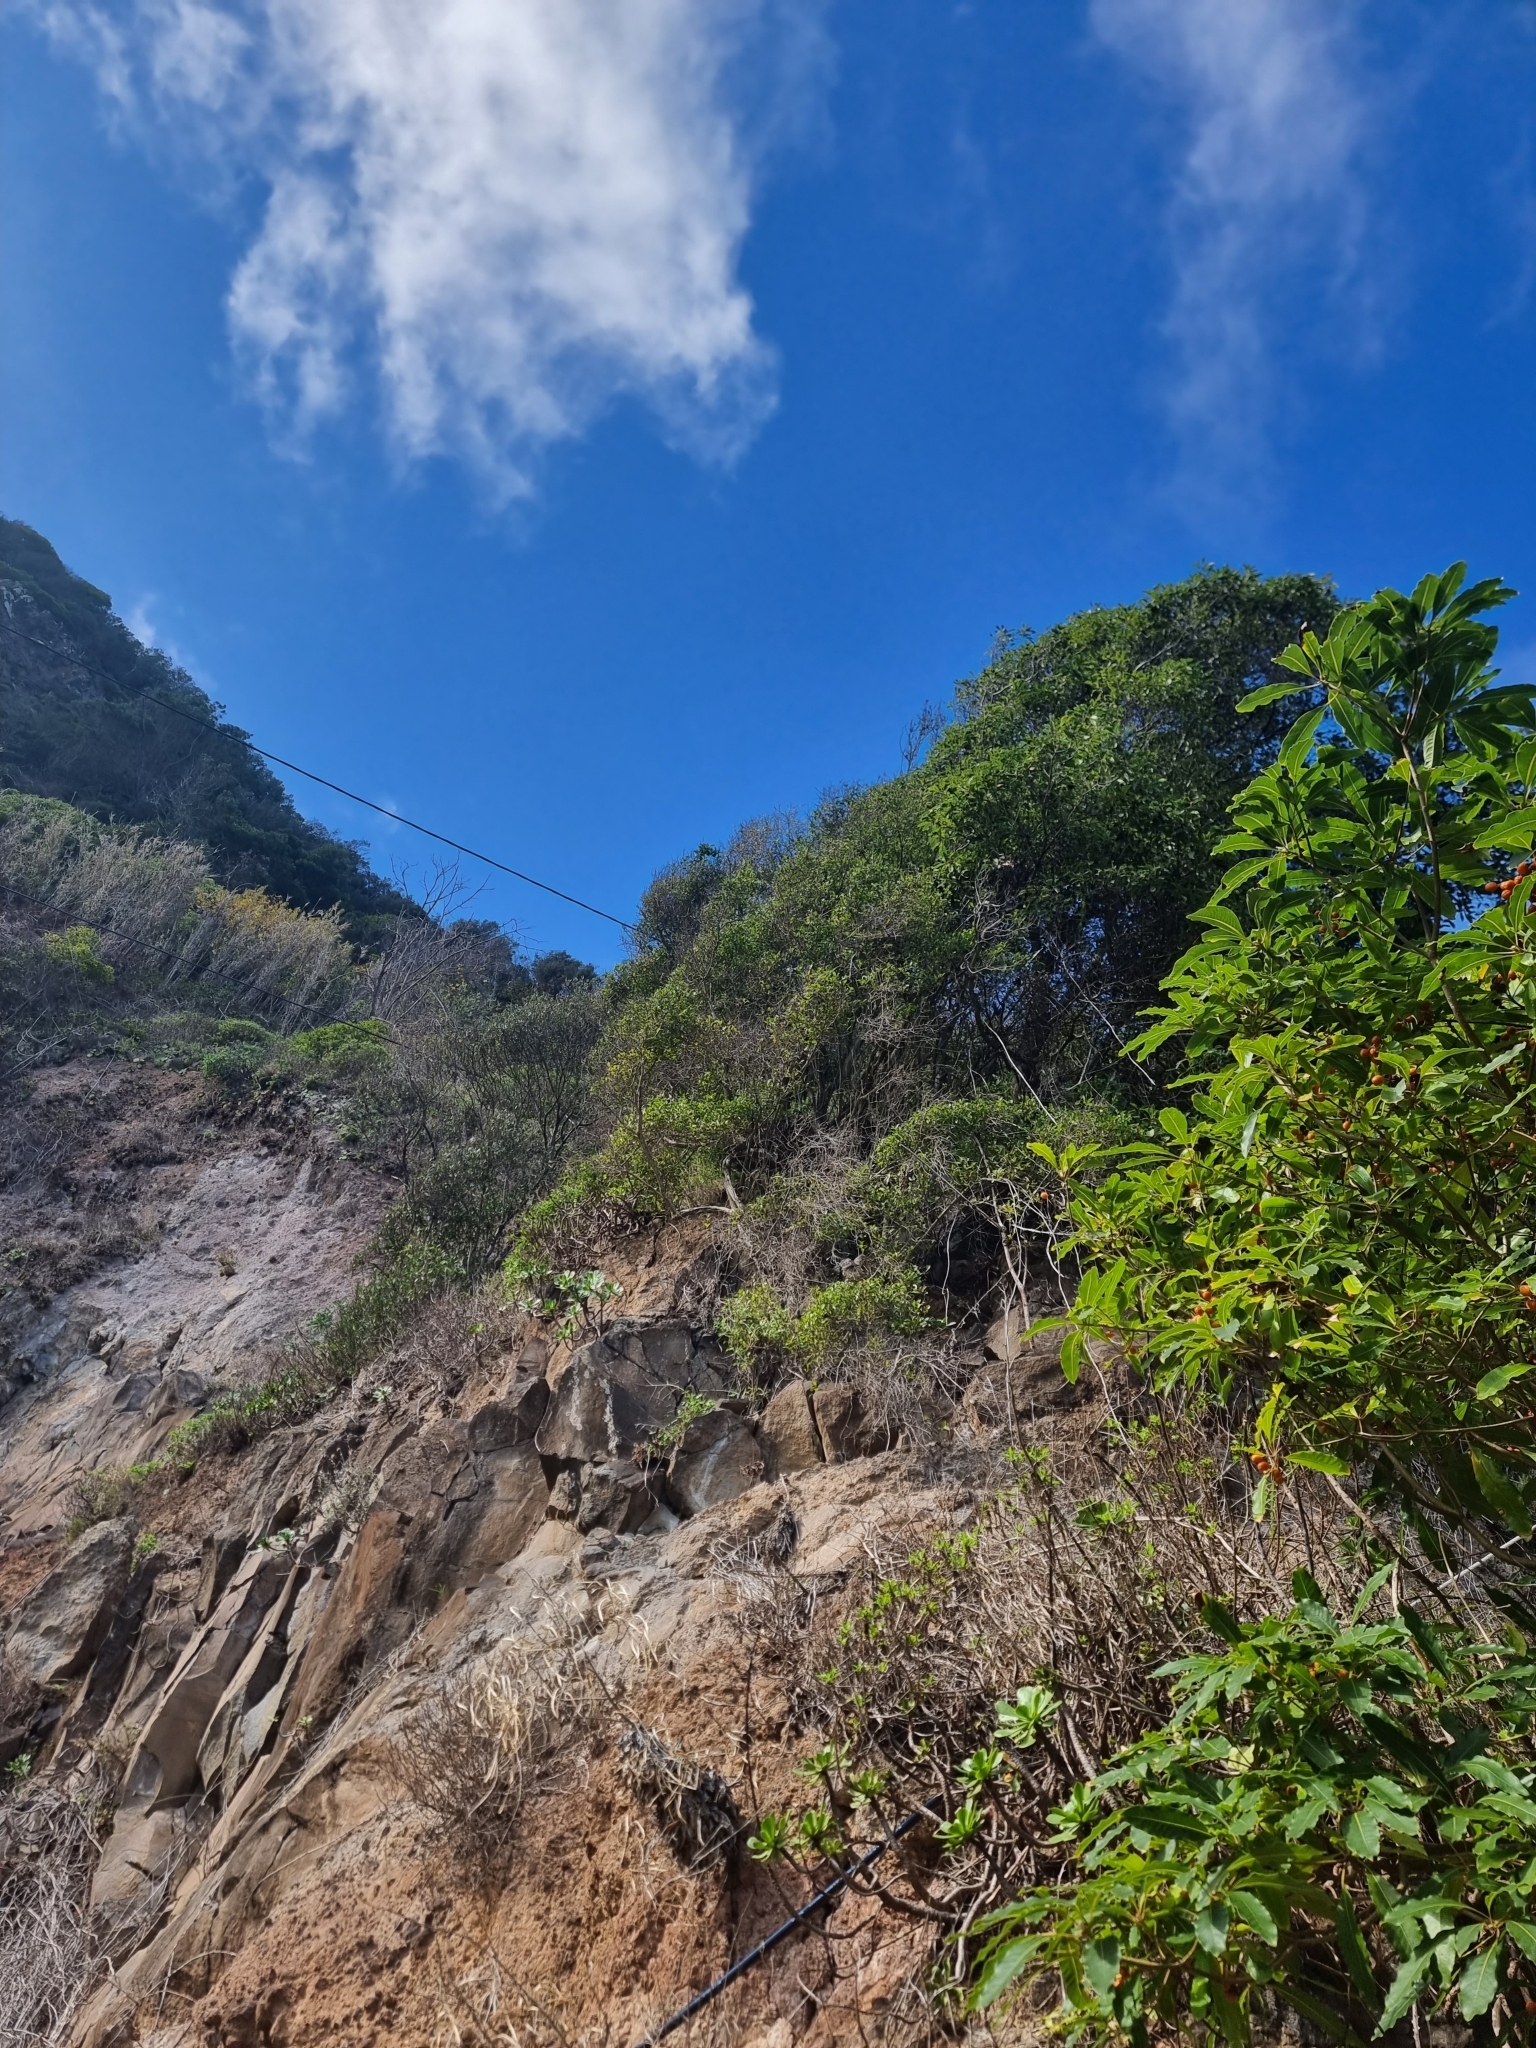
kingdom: Plantae
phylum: Tracheophyta
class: Magnoliopsida
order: Celastrales
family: Celastraceae
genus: Gymnosporia
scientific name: Gymnosporia dryandri
